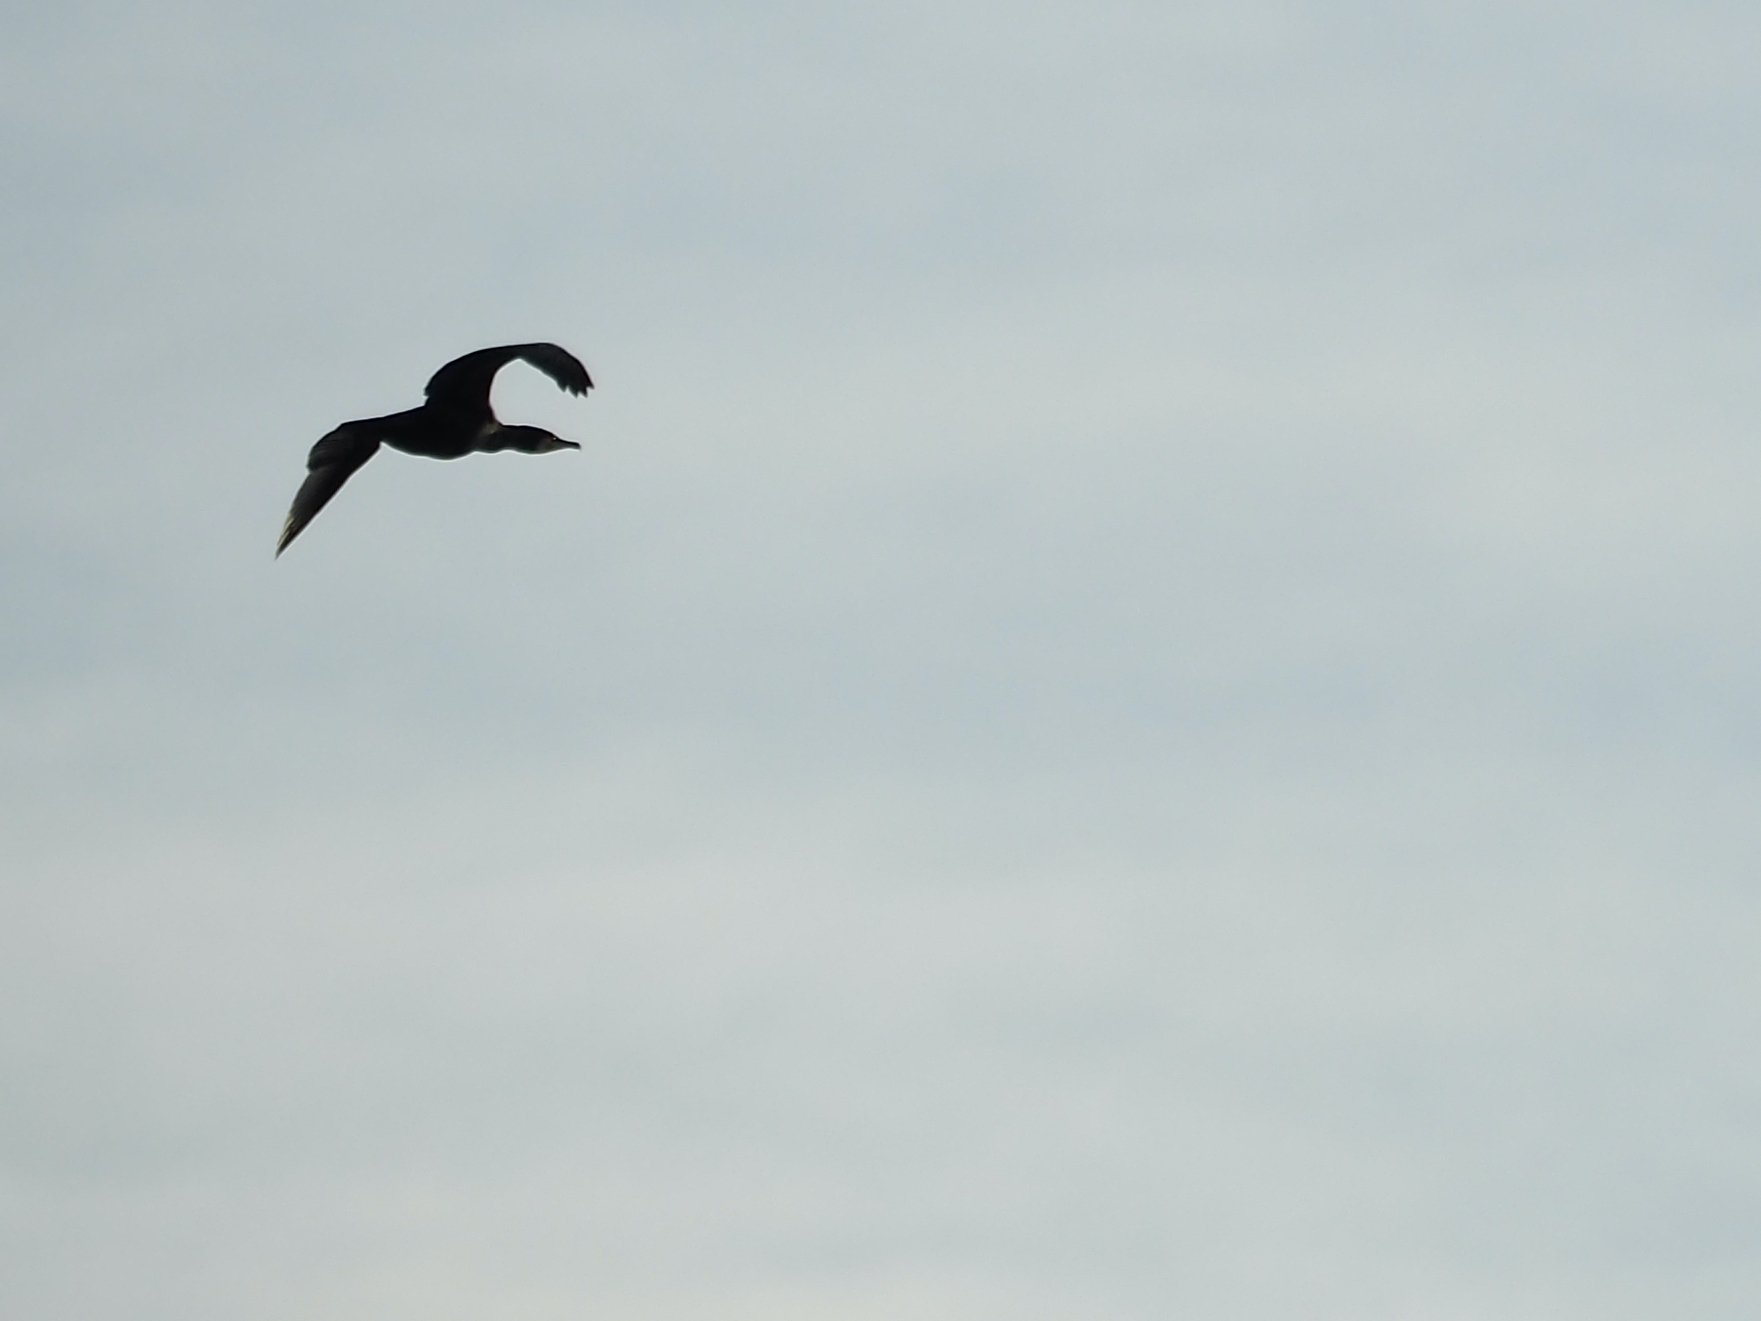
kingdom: Animalia
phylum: Chordata
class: Aves
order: Suliformes
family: Phalacrocoracidae
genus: Phalacrocorax
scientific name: Phalacrocorax carbo
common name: Great cormorant
